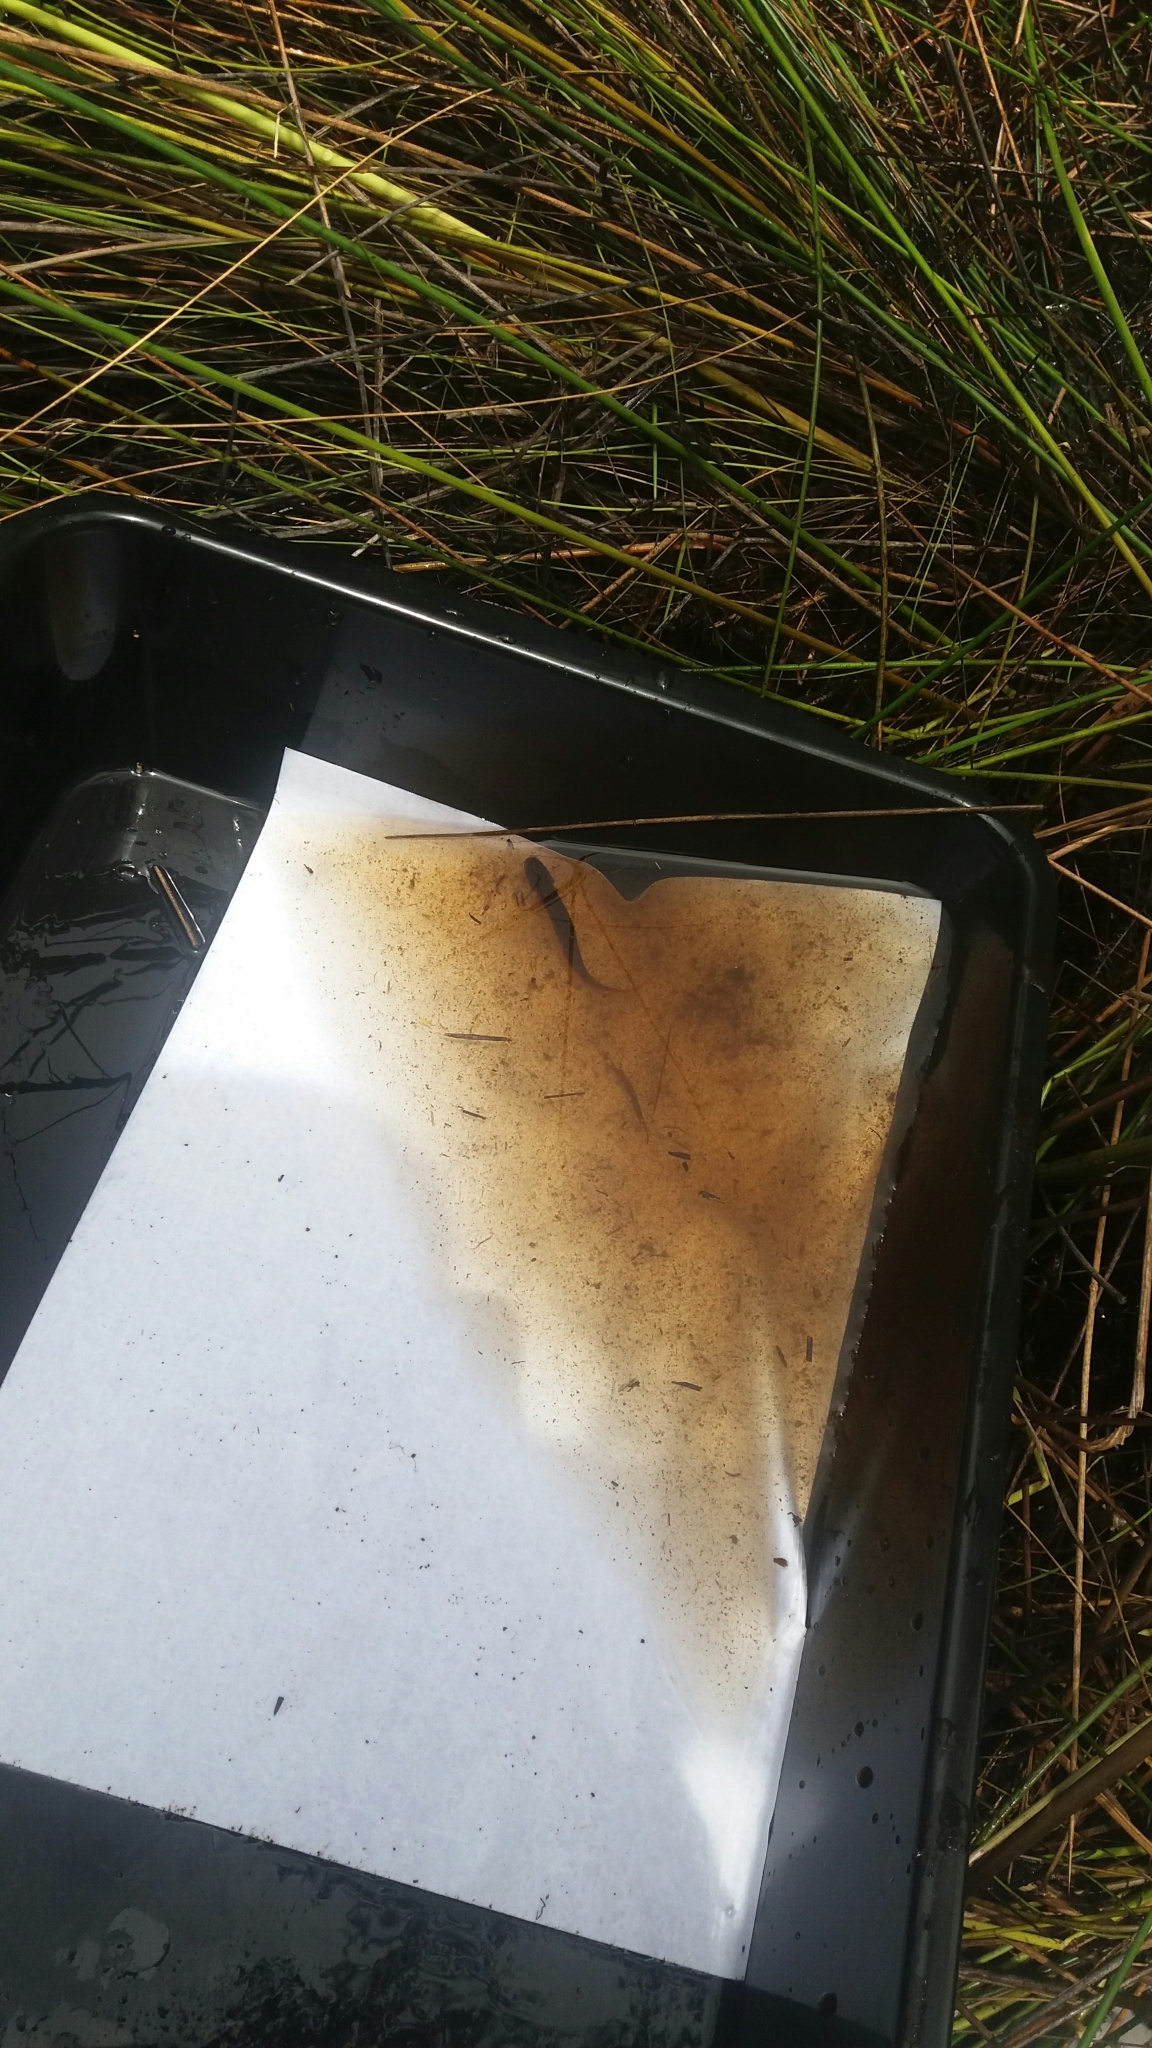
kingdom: Animalia
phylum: Chordata
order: Osmeriformes
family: Galaxiidae
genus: Neochanna
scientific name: Neochanna diversus
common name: Black mudfish
